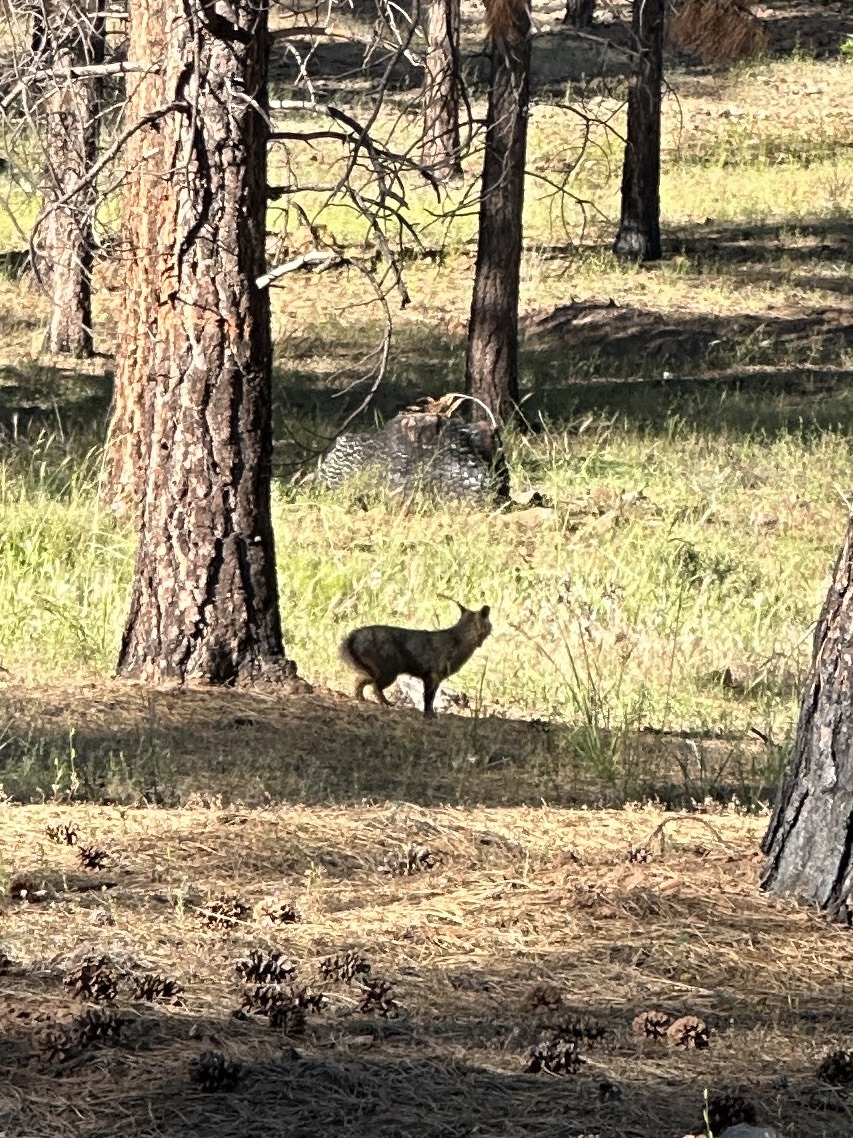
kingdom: Animalia
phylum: Chordata
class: Mammalia
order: Carnivora
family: Canidae
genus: Urocyon
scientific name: Urocyon cinereoargenteus
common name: Gray fox
